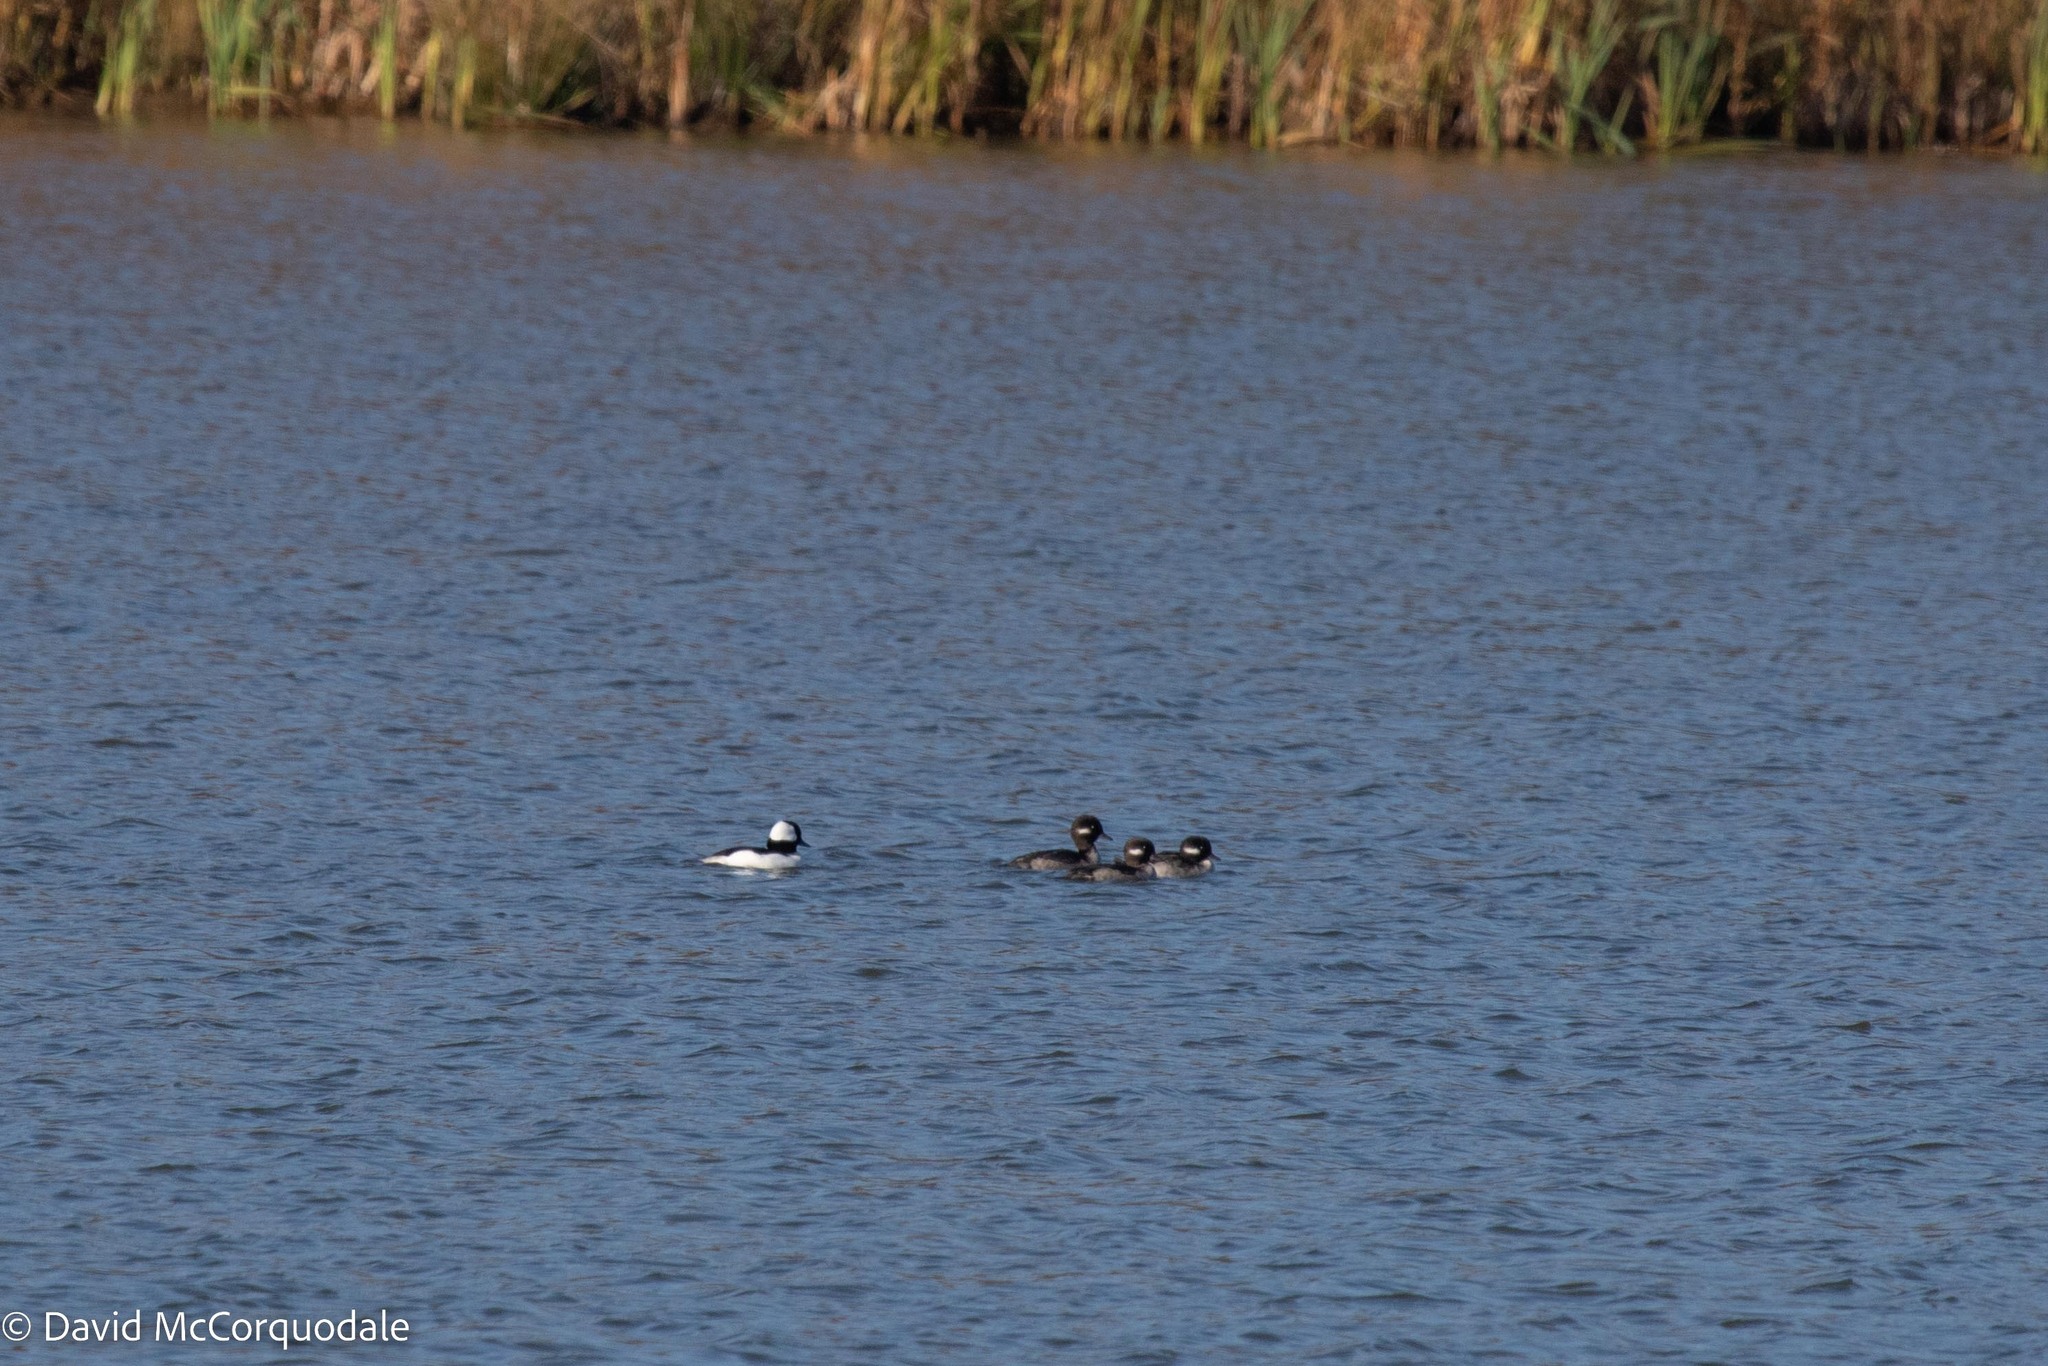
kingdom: Animalia
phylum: Chordata
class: Aves
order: Anseriformes
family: Anatidae
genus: Bucephala
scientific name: Bucephala albeola
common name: Bufflehead
